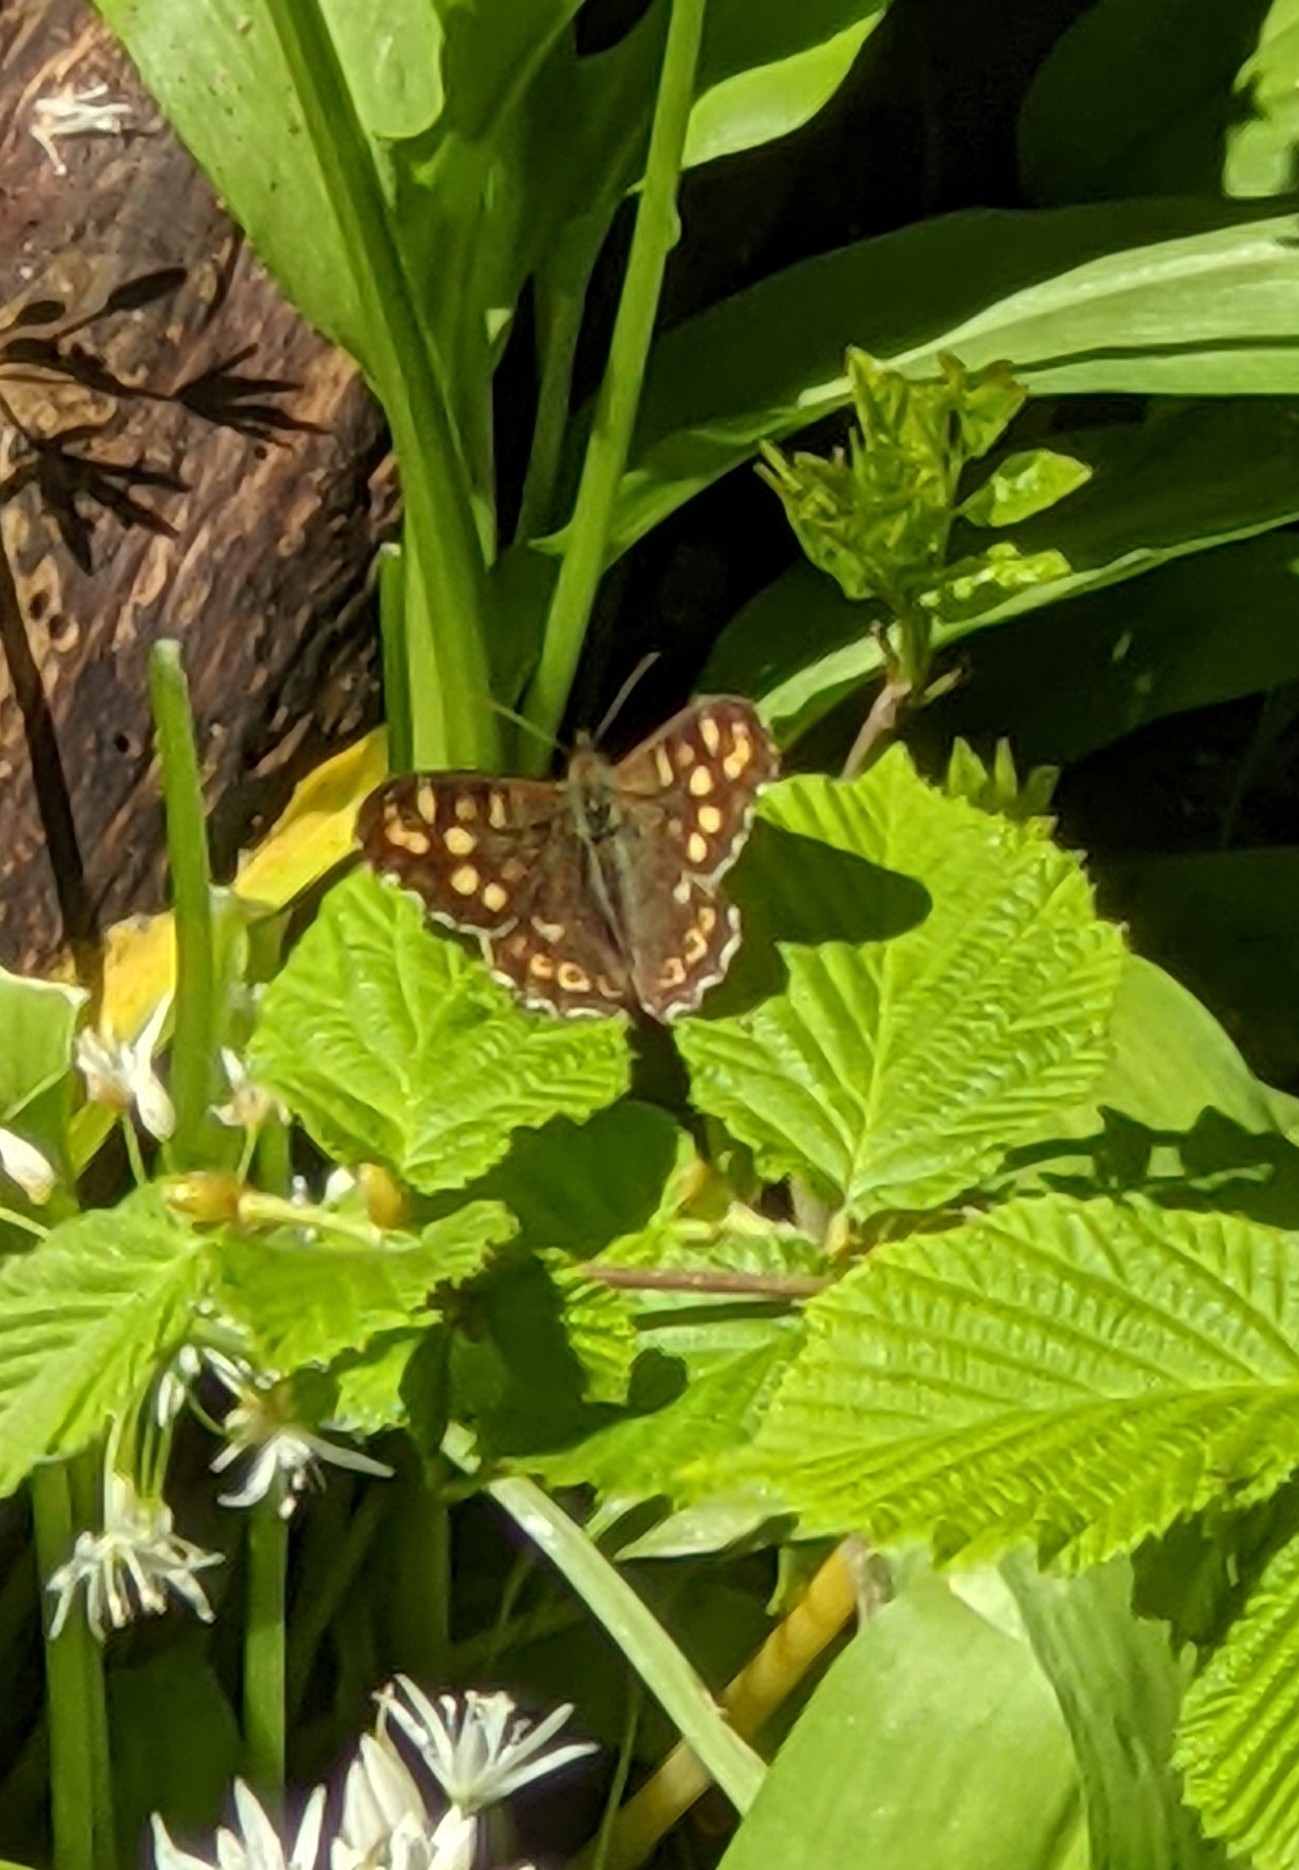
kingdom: Animalia
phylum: Arthropoda
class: Insecta
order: Lepidoptera
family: Nymphalidae
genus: Pararge
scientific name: Pararge aegeria
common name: Speckled wood
